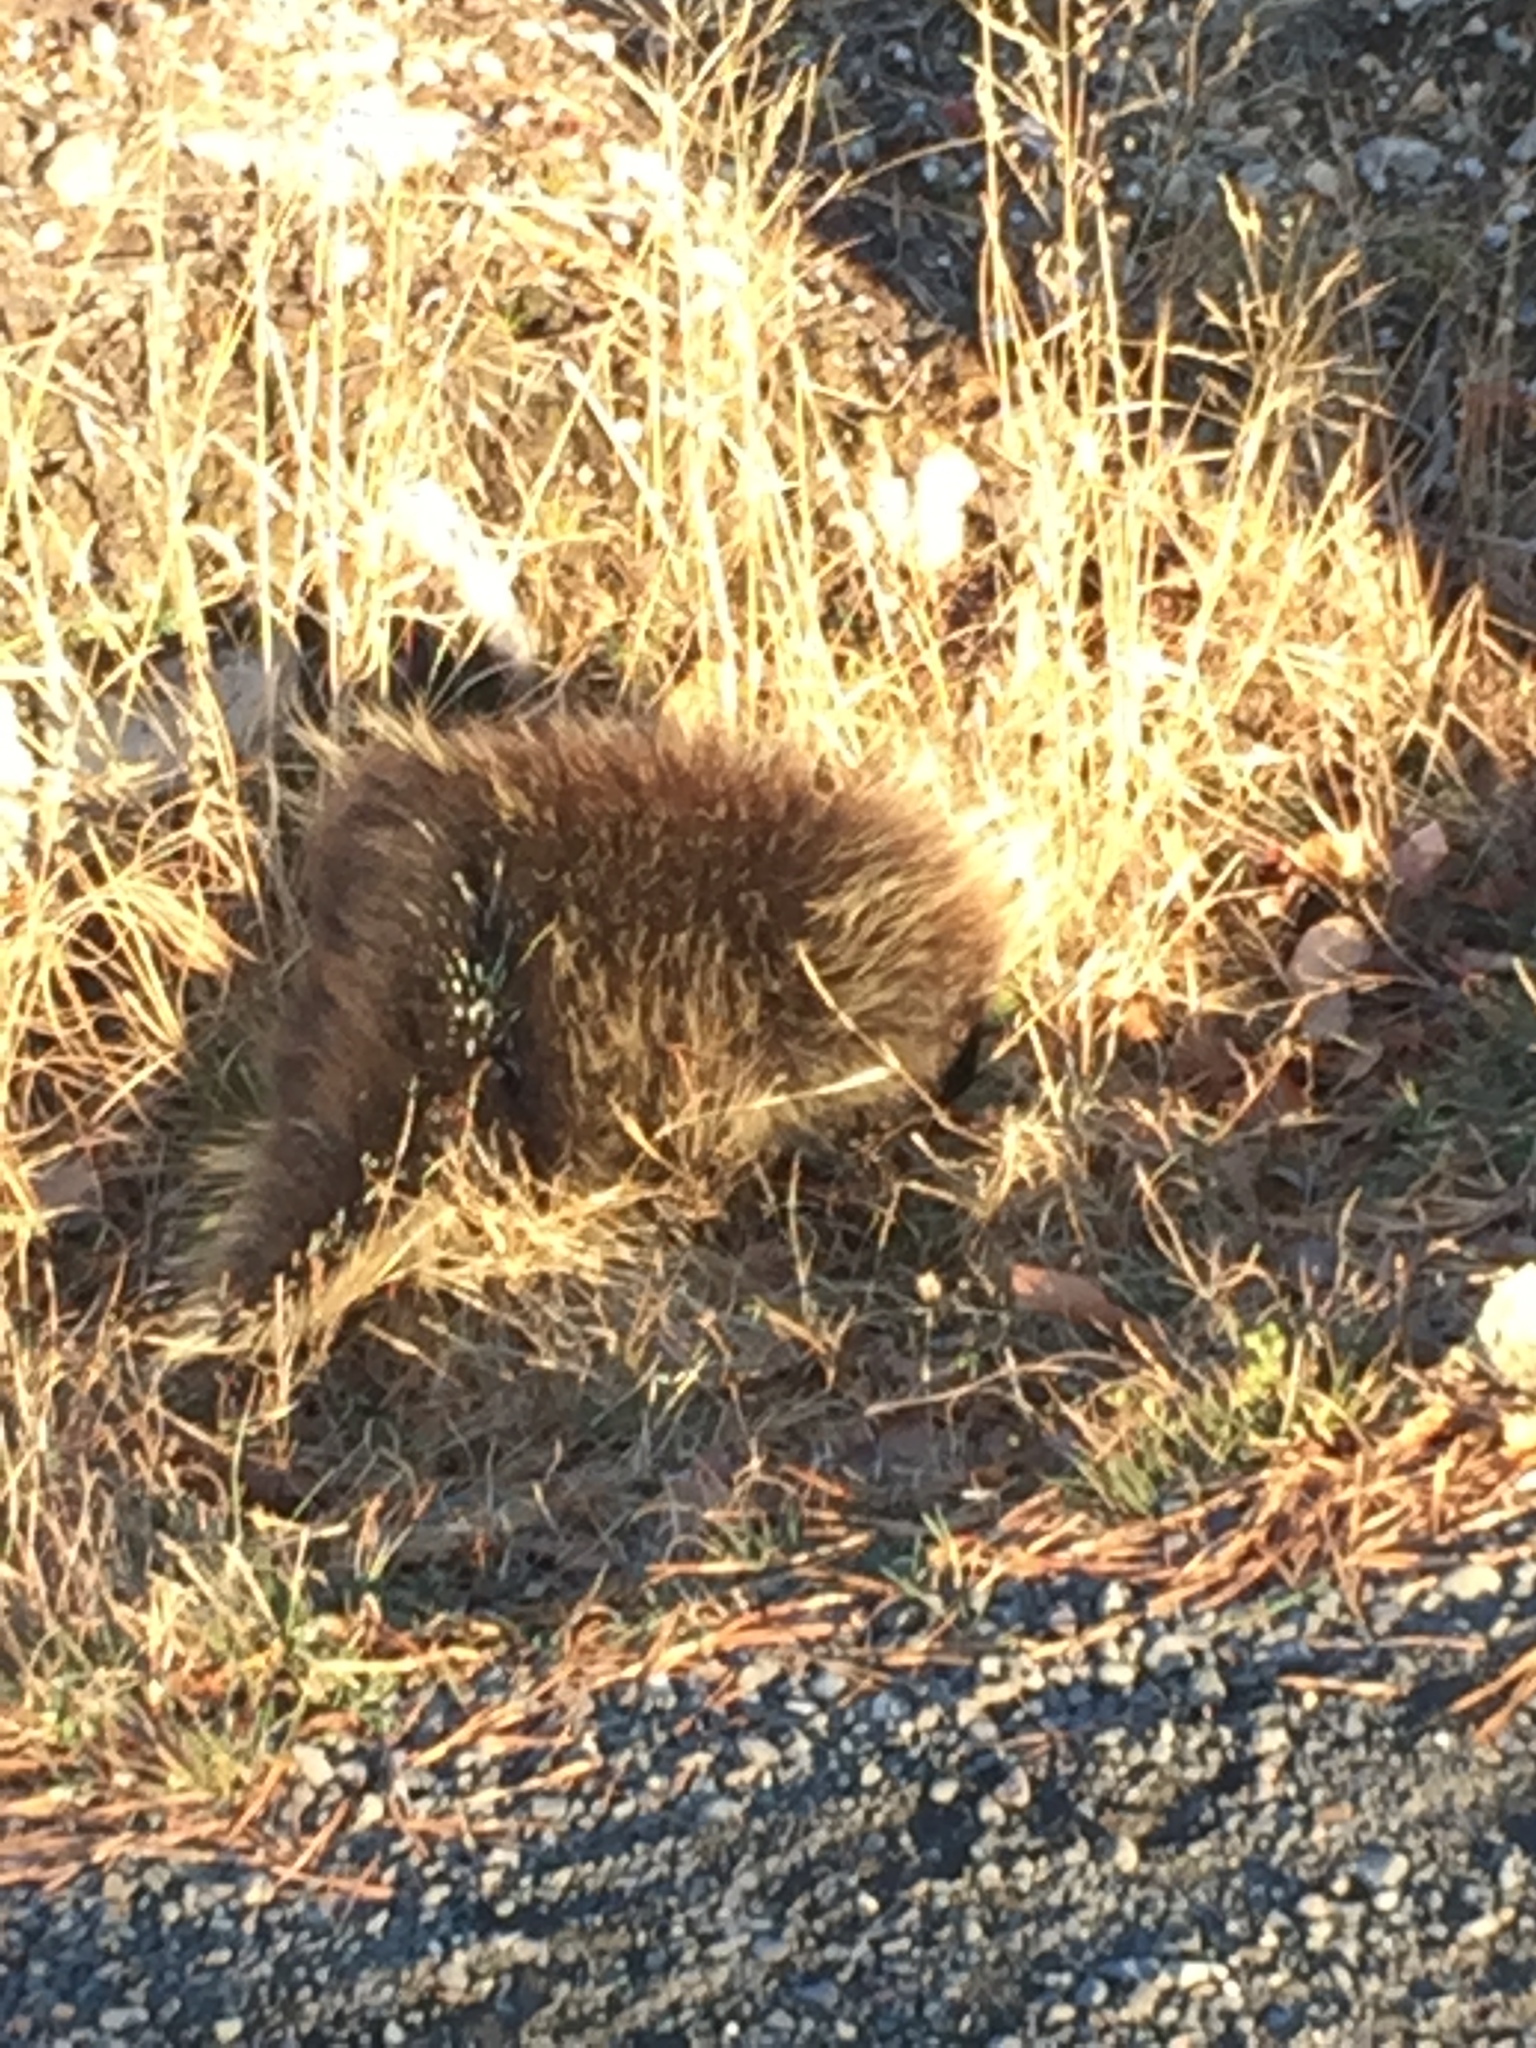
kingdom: Animalia
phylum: Chordata
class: Mammalia
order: Rodentia
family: Erethizontidae
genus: Erethizon
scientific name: Erethizon dorsatus
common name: North american porcupine
